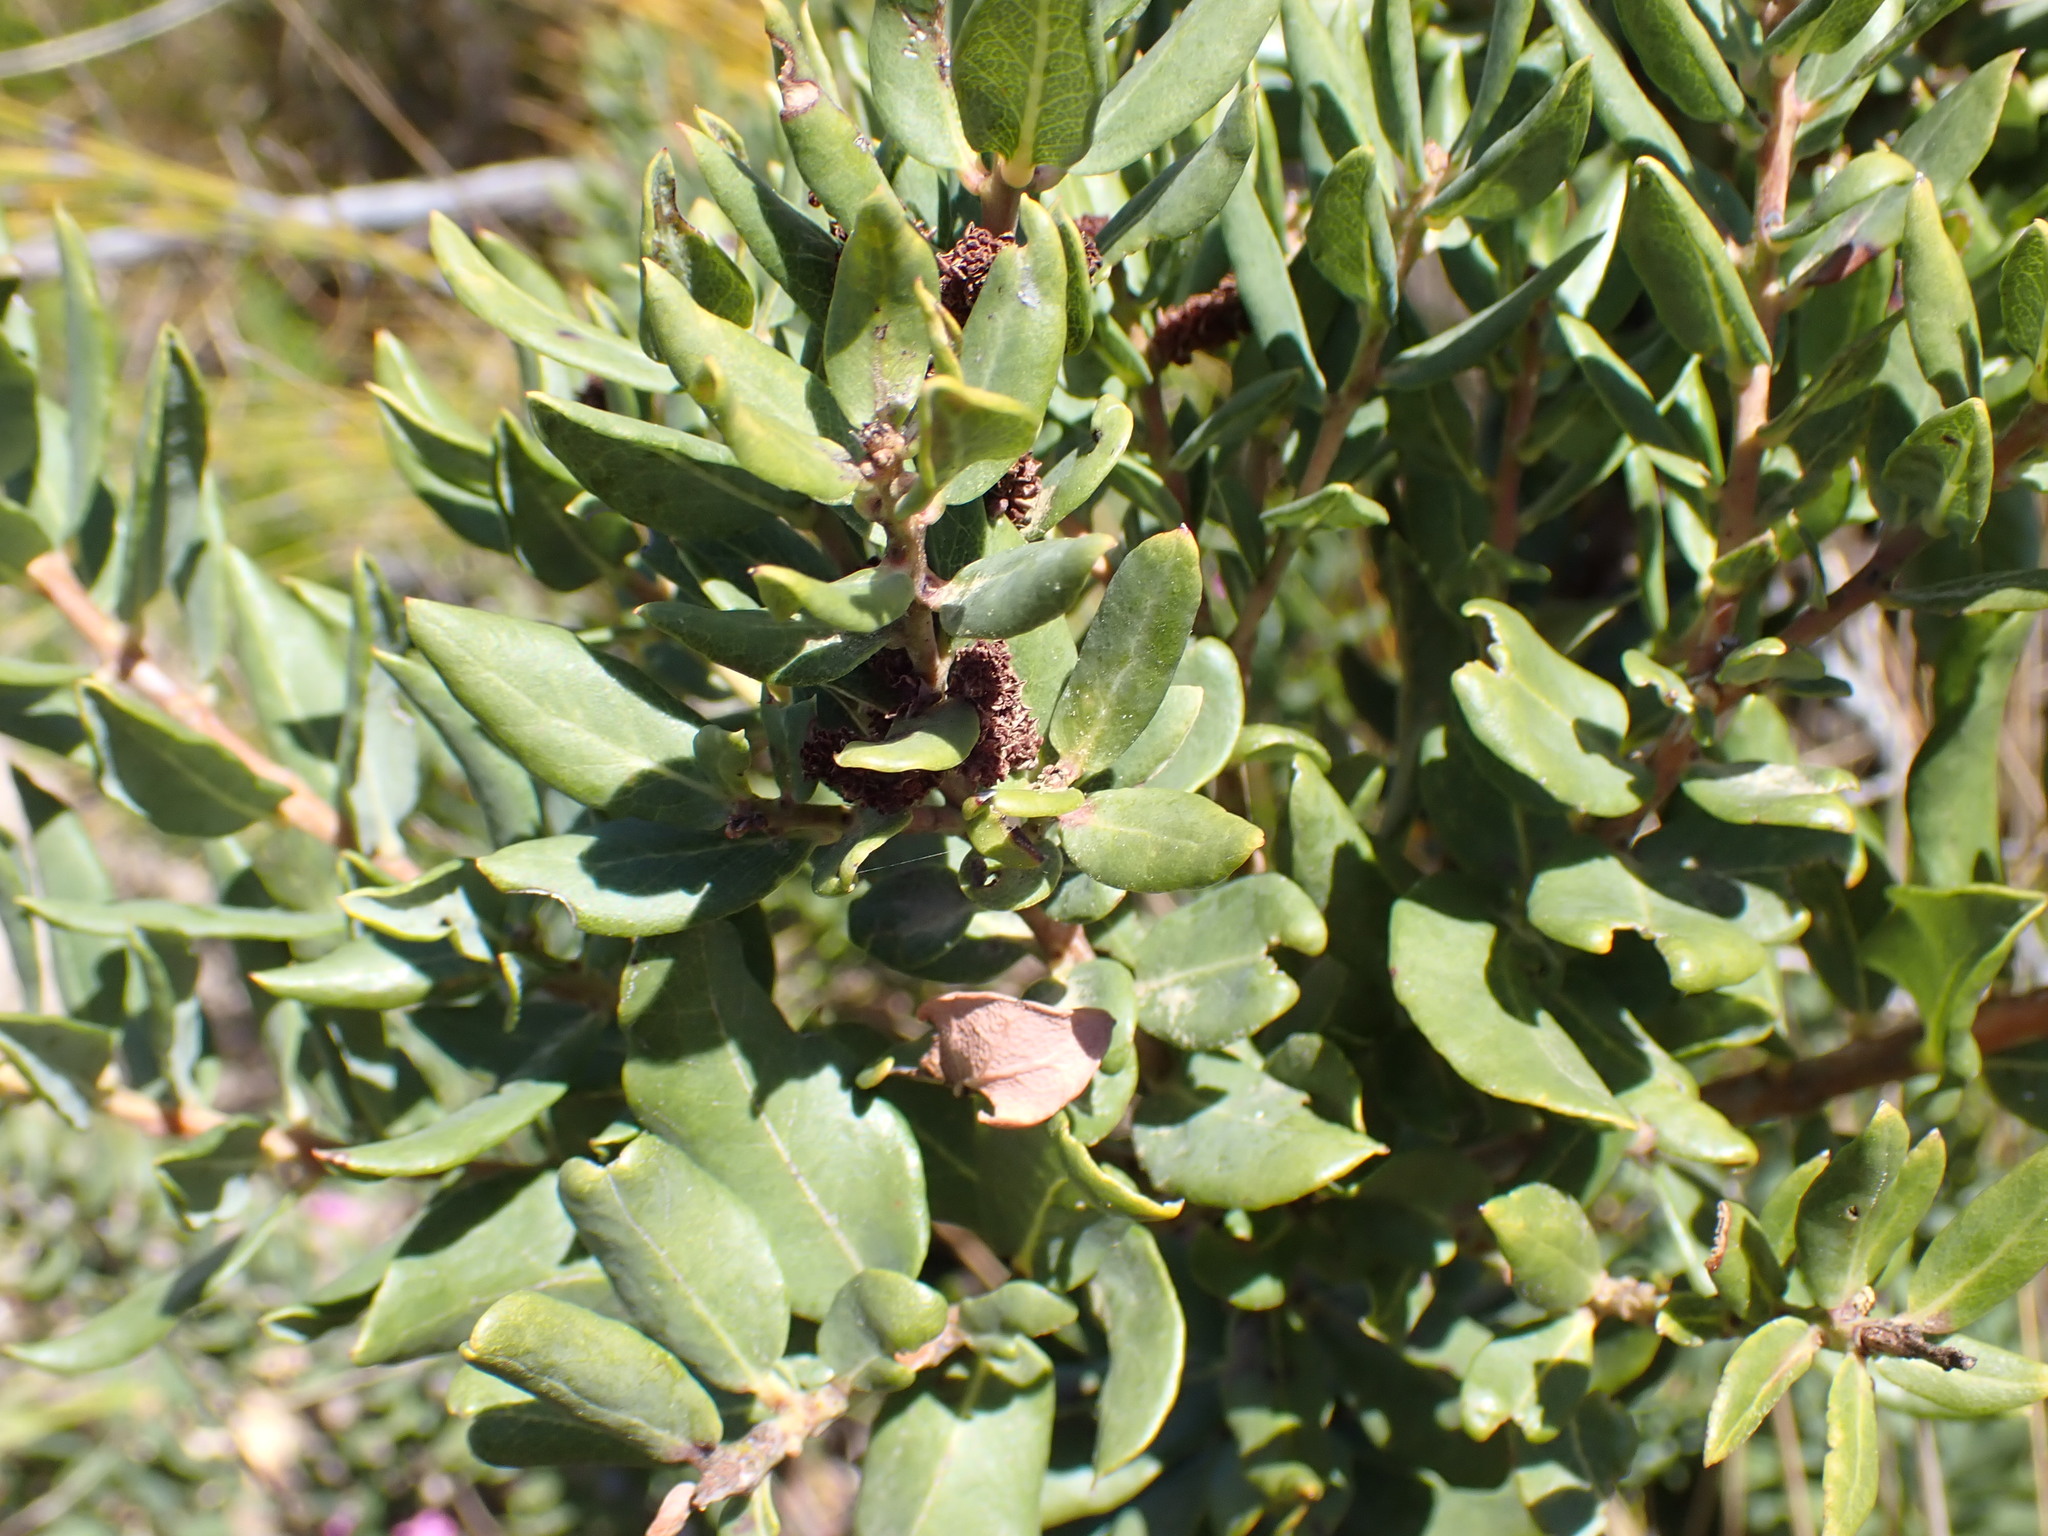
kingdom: Plantae
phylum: Tracheophyta
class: Magnoliopsida
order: Fagales
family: Myricaceae
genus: Morella
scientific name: Morella humilis
